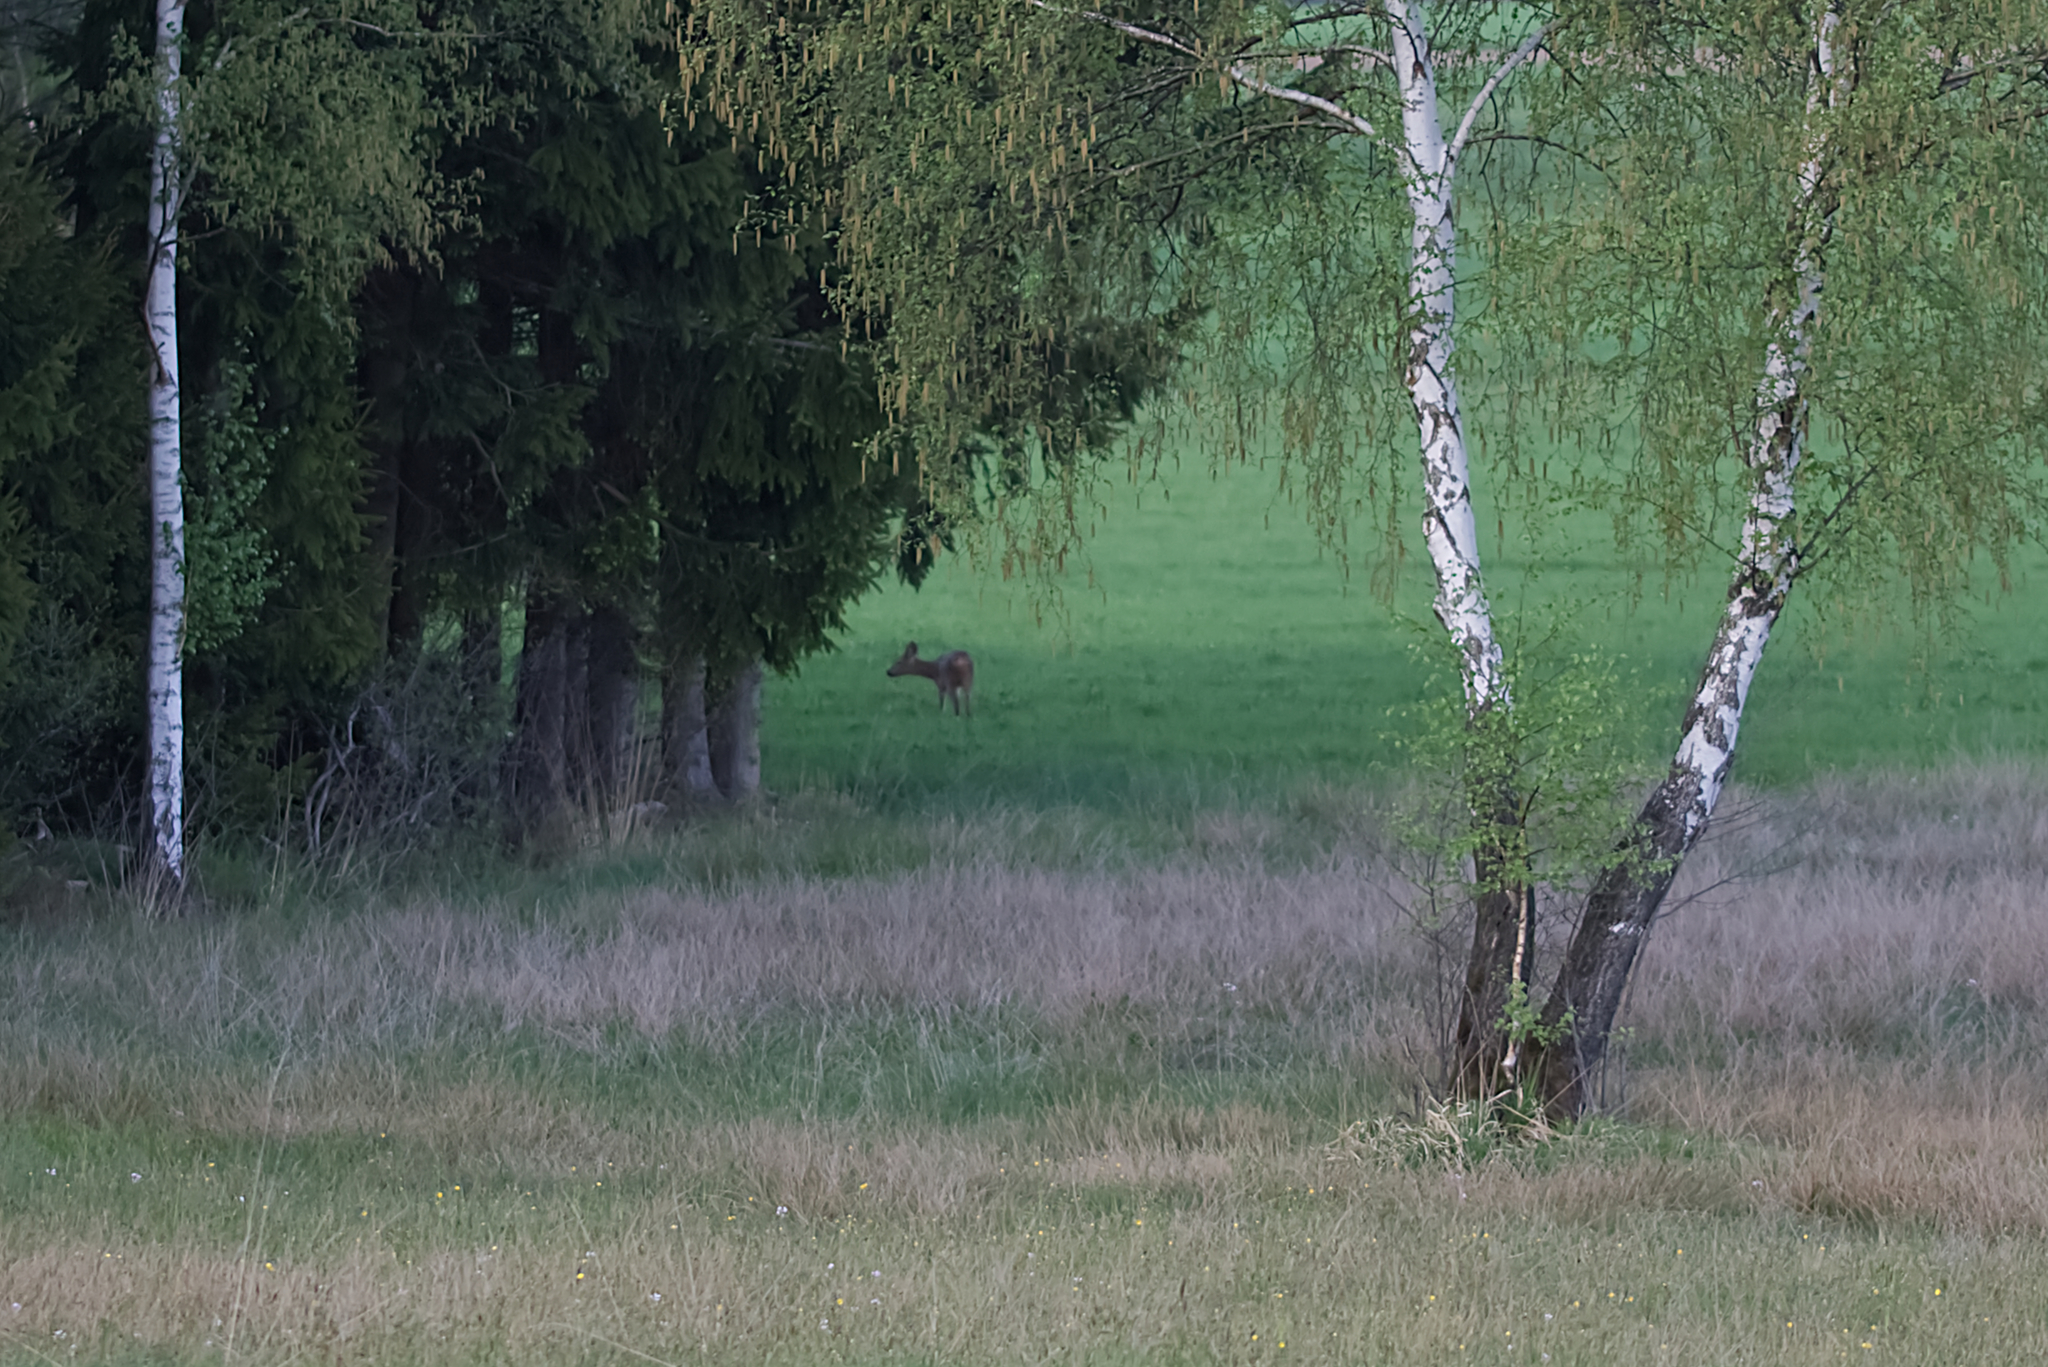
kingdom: Animalia
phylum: Chordata
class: Mammalia
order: Artiodactyla
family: Cervidae
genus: Capreolus
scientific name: Capreolus capreolus
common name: Western roe deer
